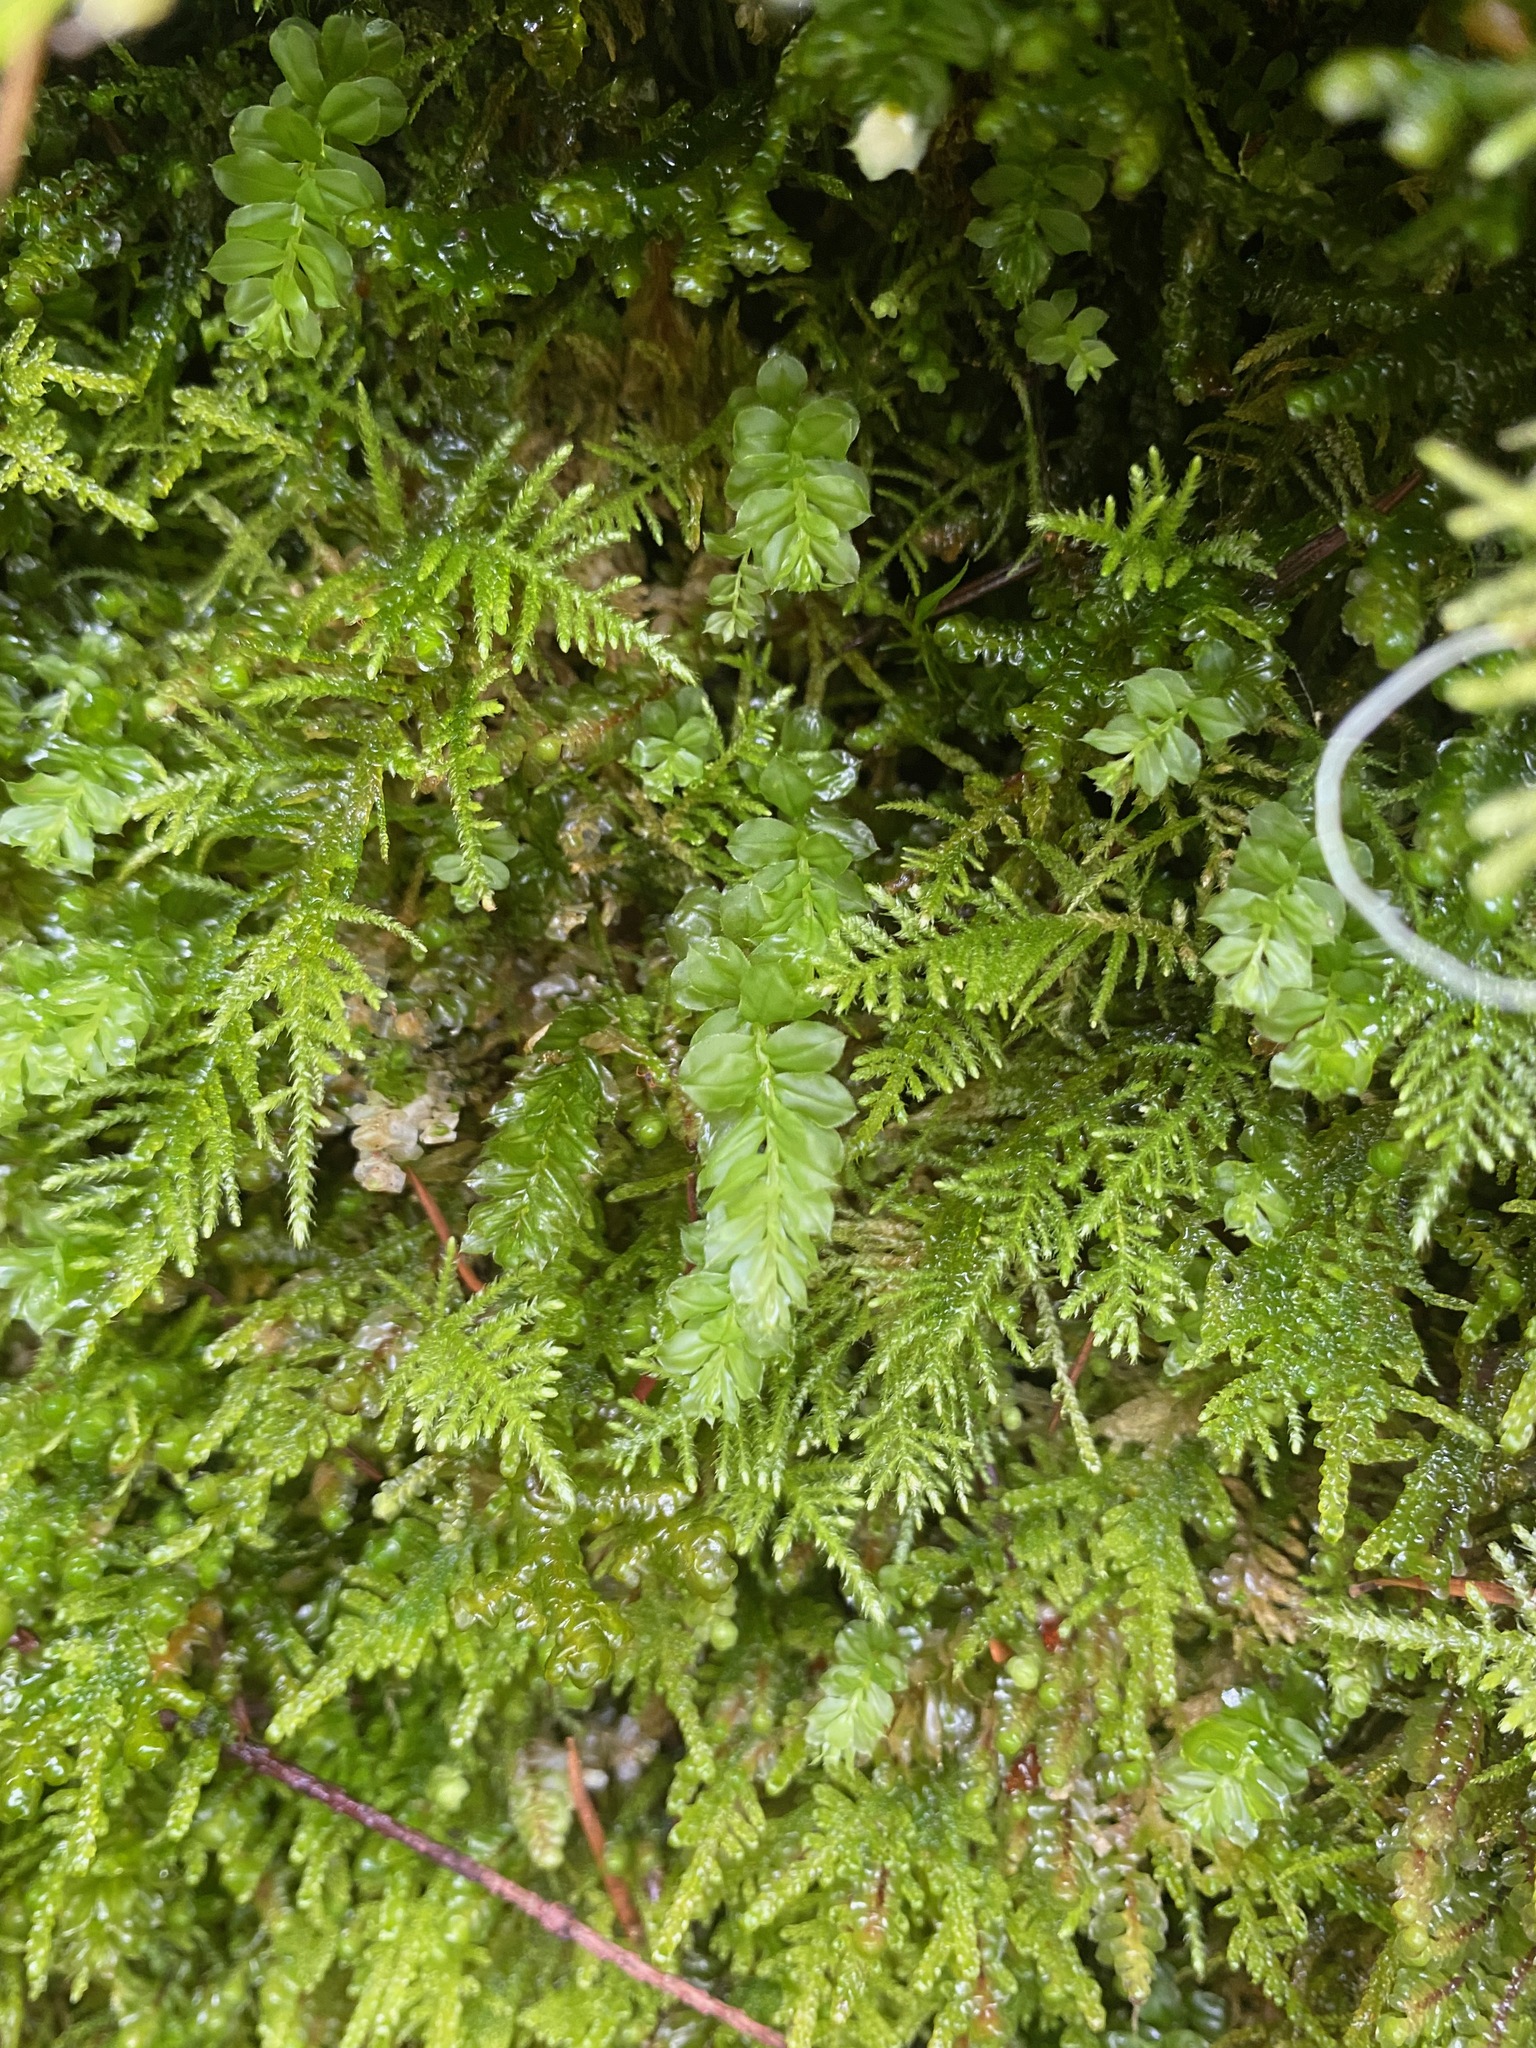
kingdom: Plantae
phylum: Bryophyta
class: Bryopsida
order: Bryales
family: Mniaceae
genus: Plagiomnium
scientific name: Plagiomnium insigne
